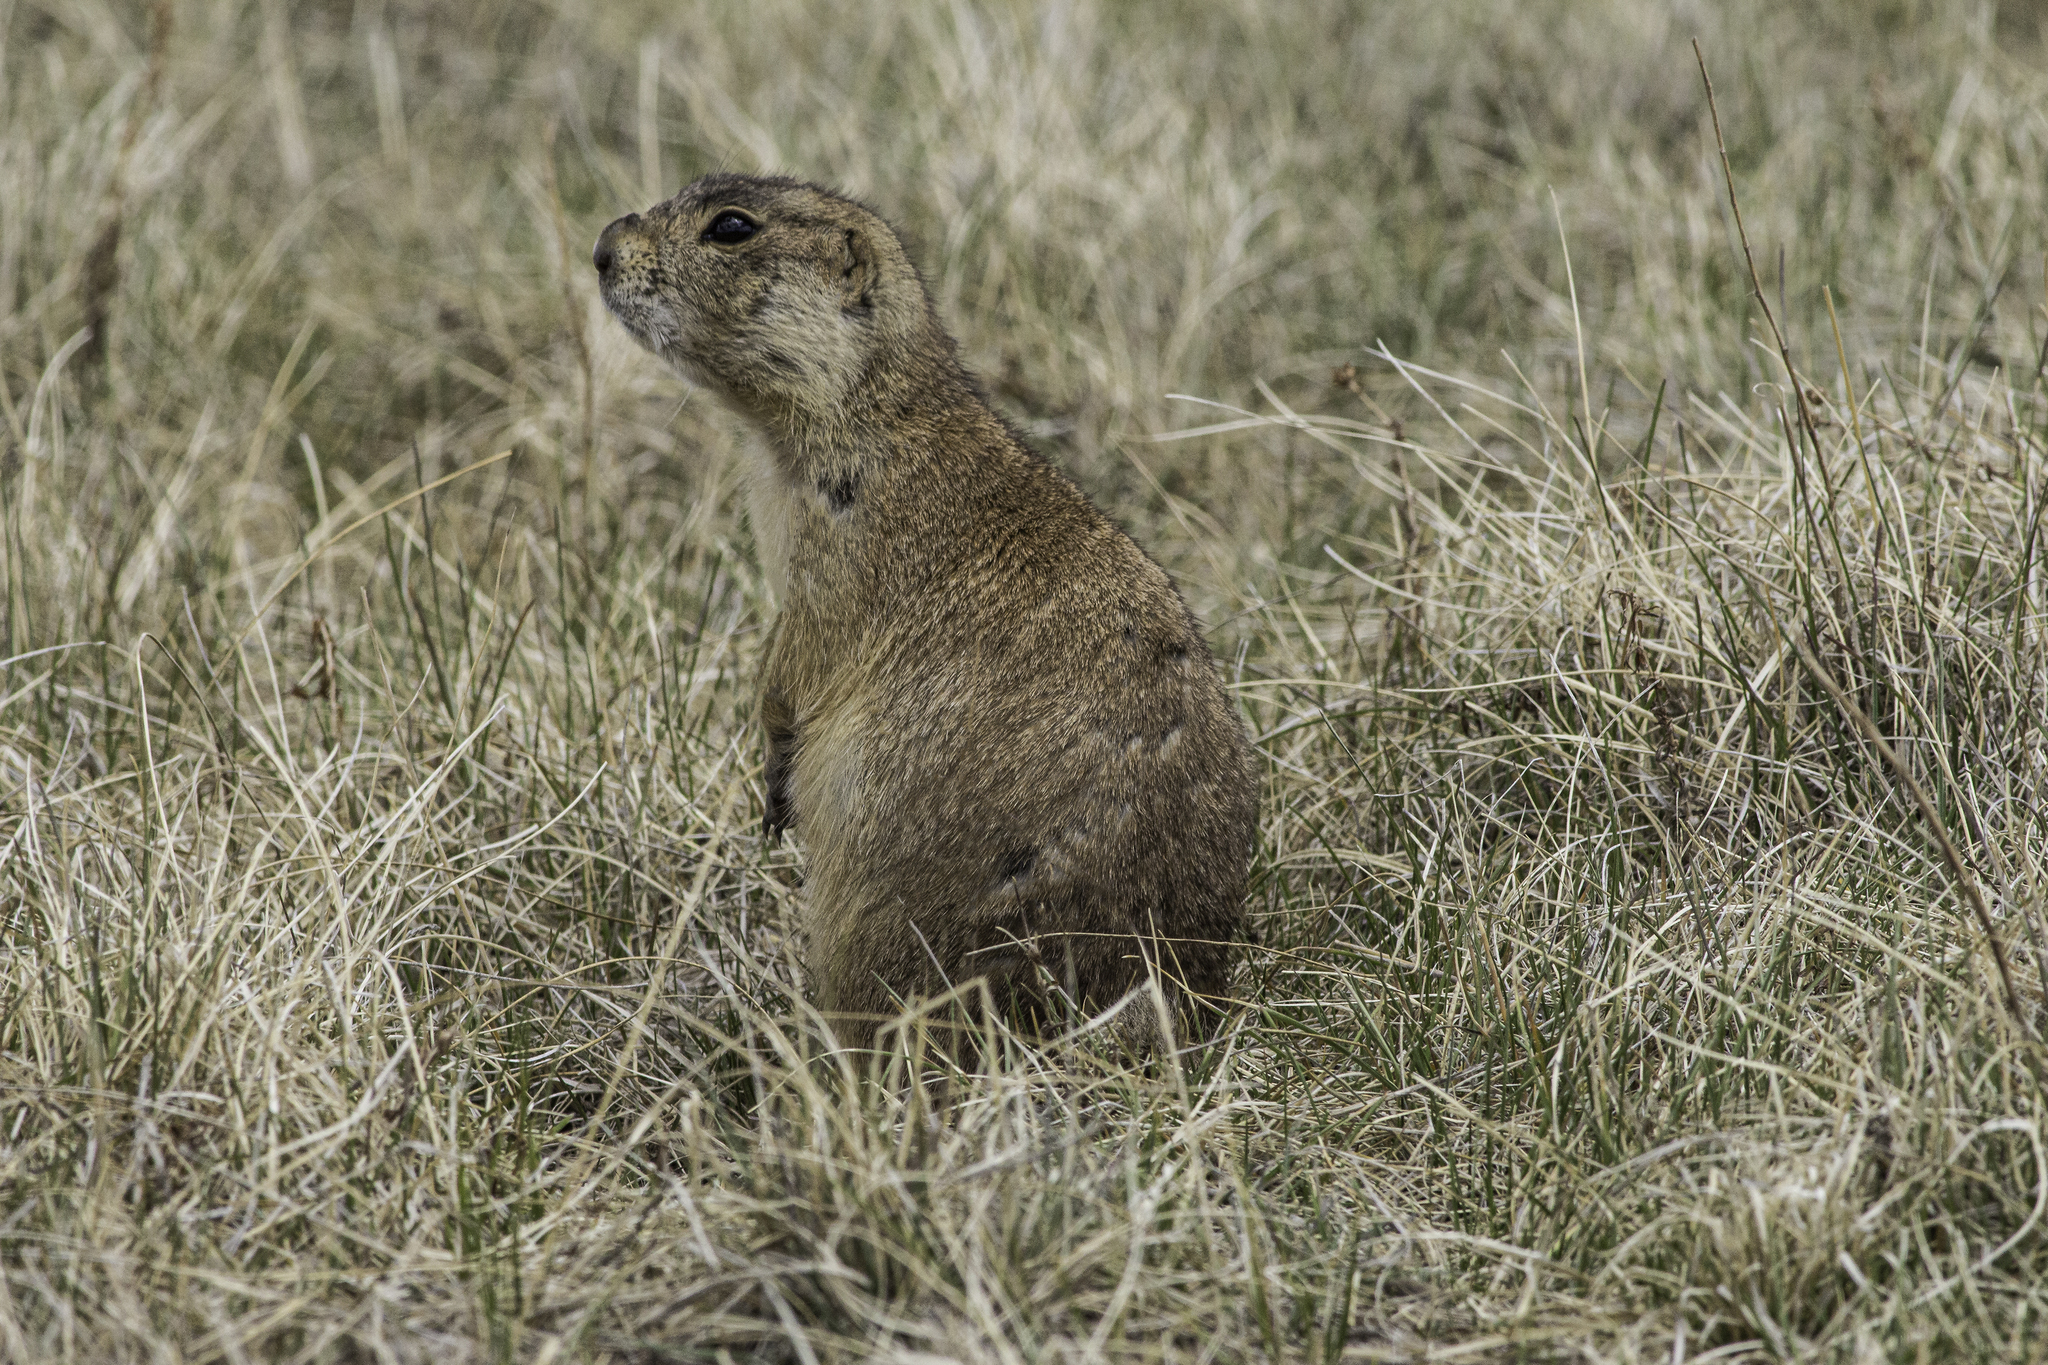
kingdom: Animalia
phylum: Chordata
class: Mammalia
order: Rodentia
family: Sciuridae
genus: Cynomys
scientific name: Cynomys gunnisoni
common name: Gunnison's prairie dog
